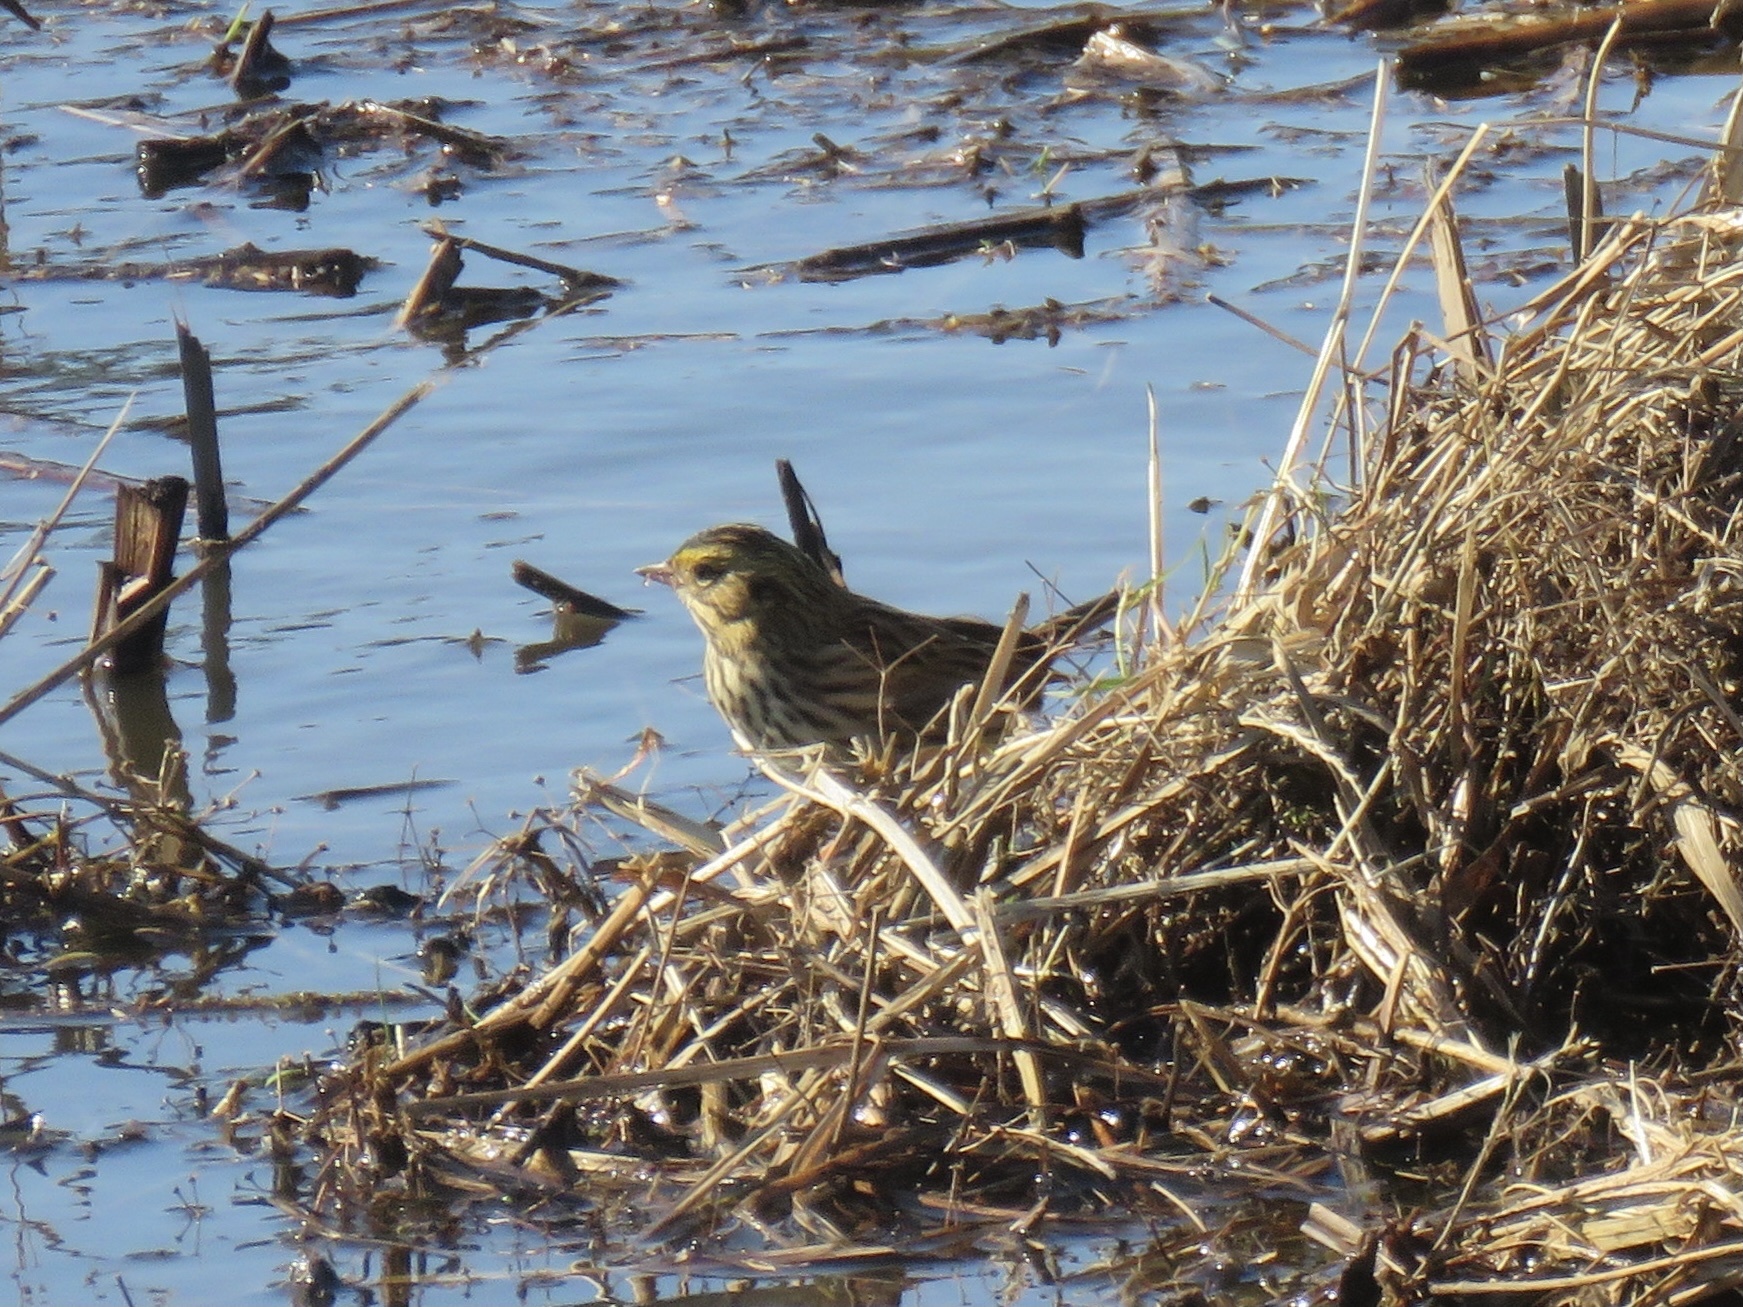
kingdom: Animalia
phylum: Chordata
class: Aves
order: Passeriformes
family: Passerellidae
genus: Passerculus
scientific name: Passerculus sandwichensis
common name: Savannah sparrow
